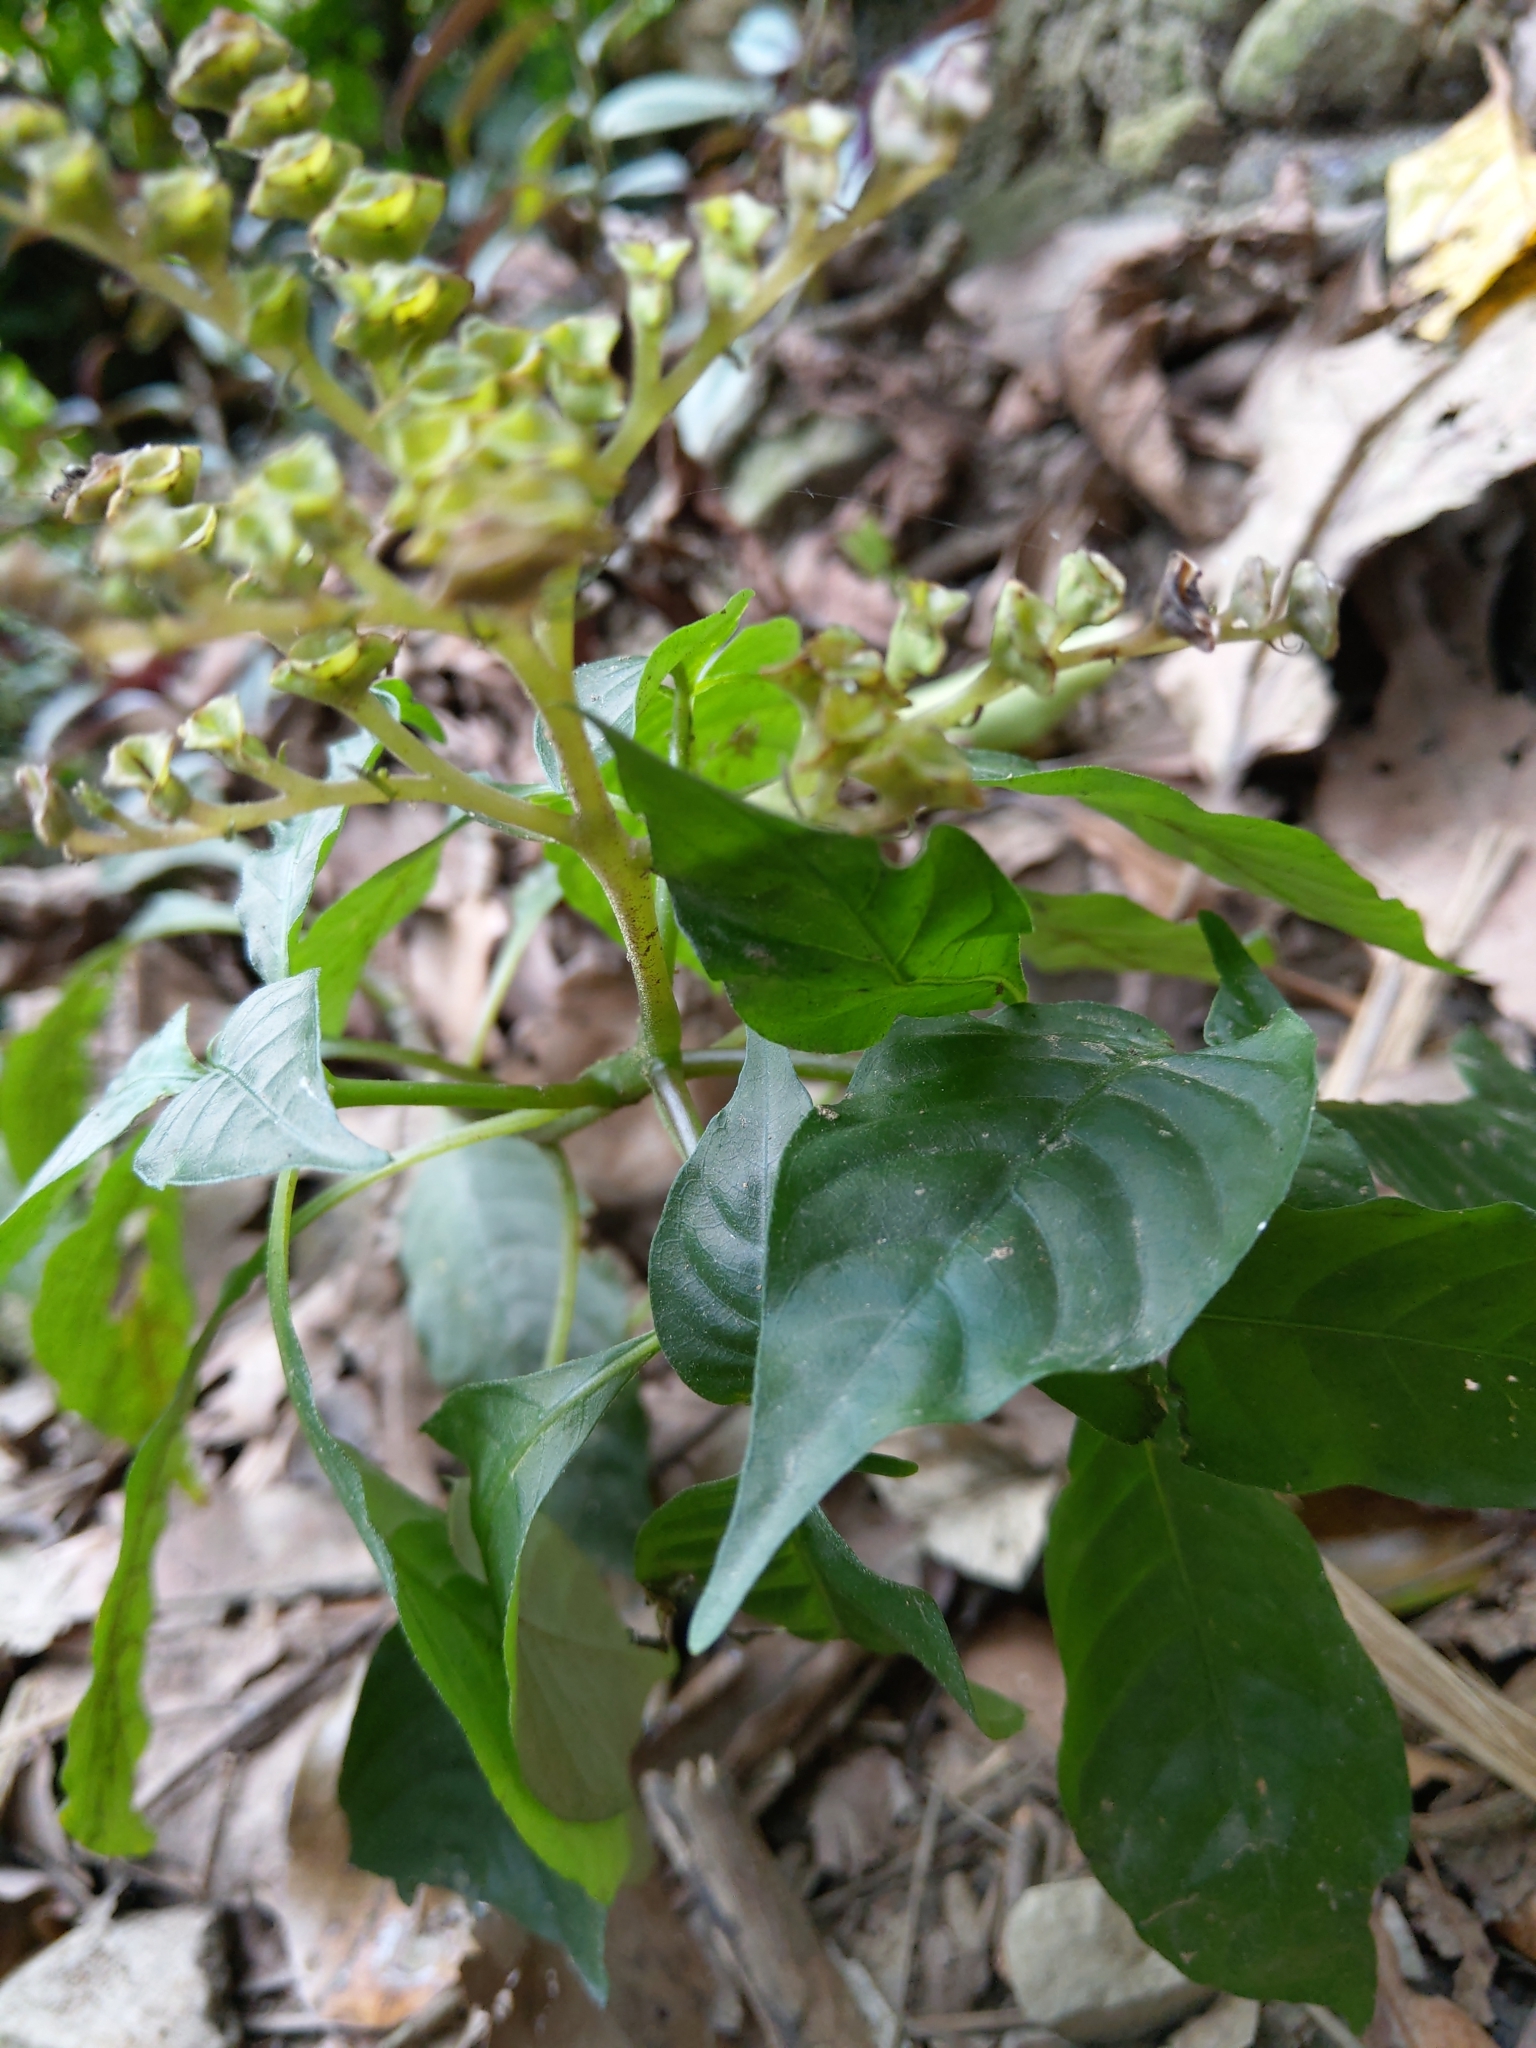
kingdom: Plantae
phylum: Tracheophyta
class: Magnoliopsida
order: Gentianales
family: Rubiaceae
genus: Ophiorrhiza
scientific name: Ophiorrhiza japonica
